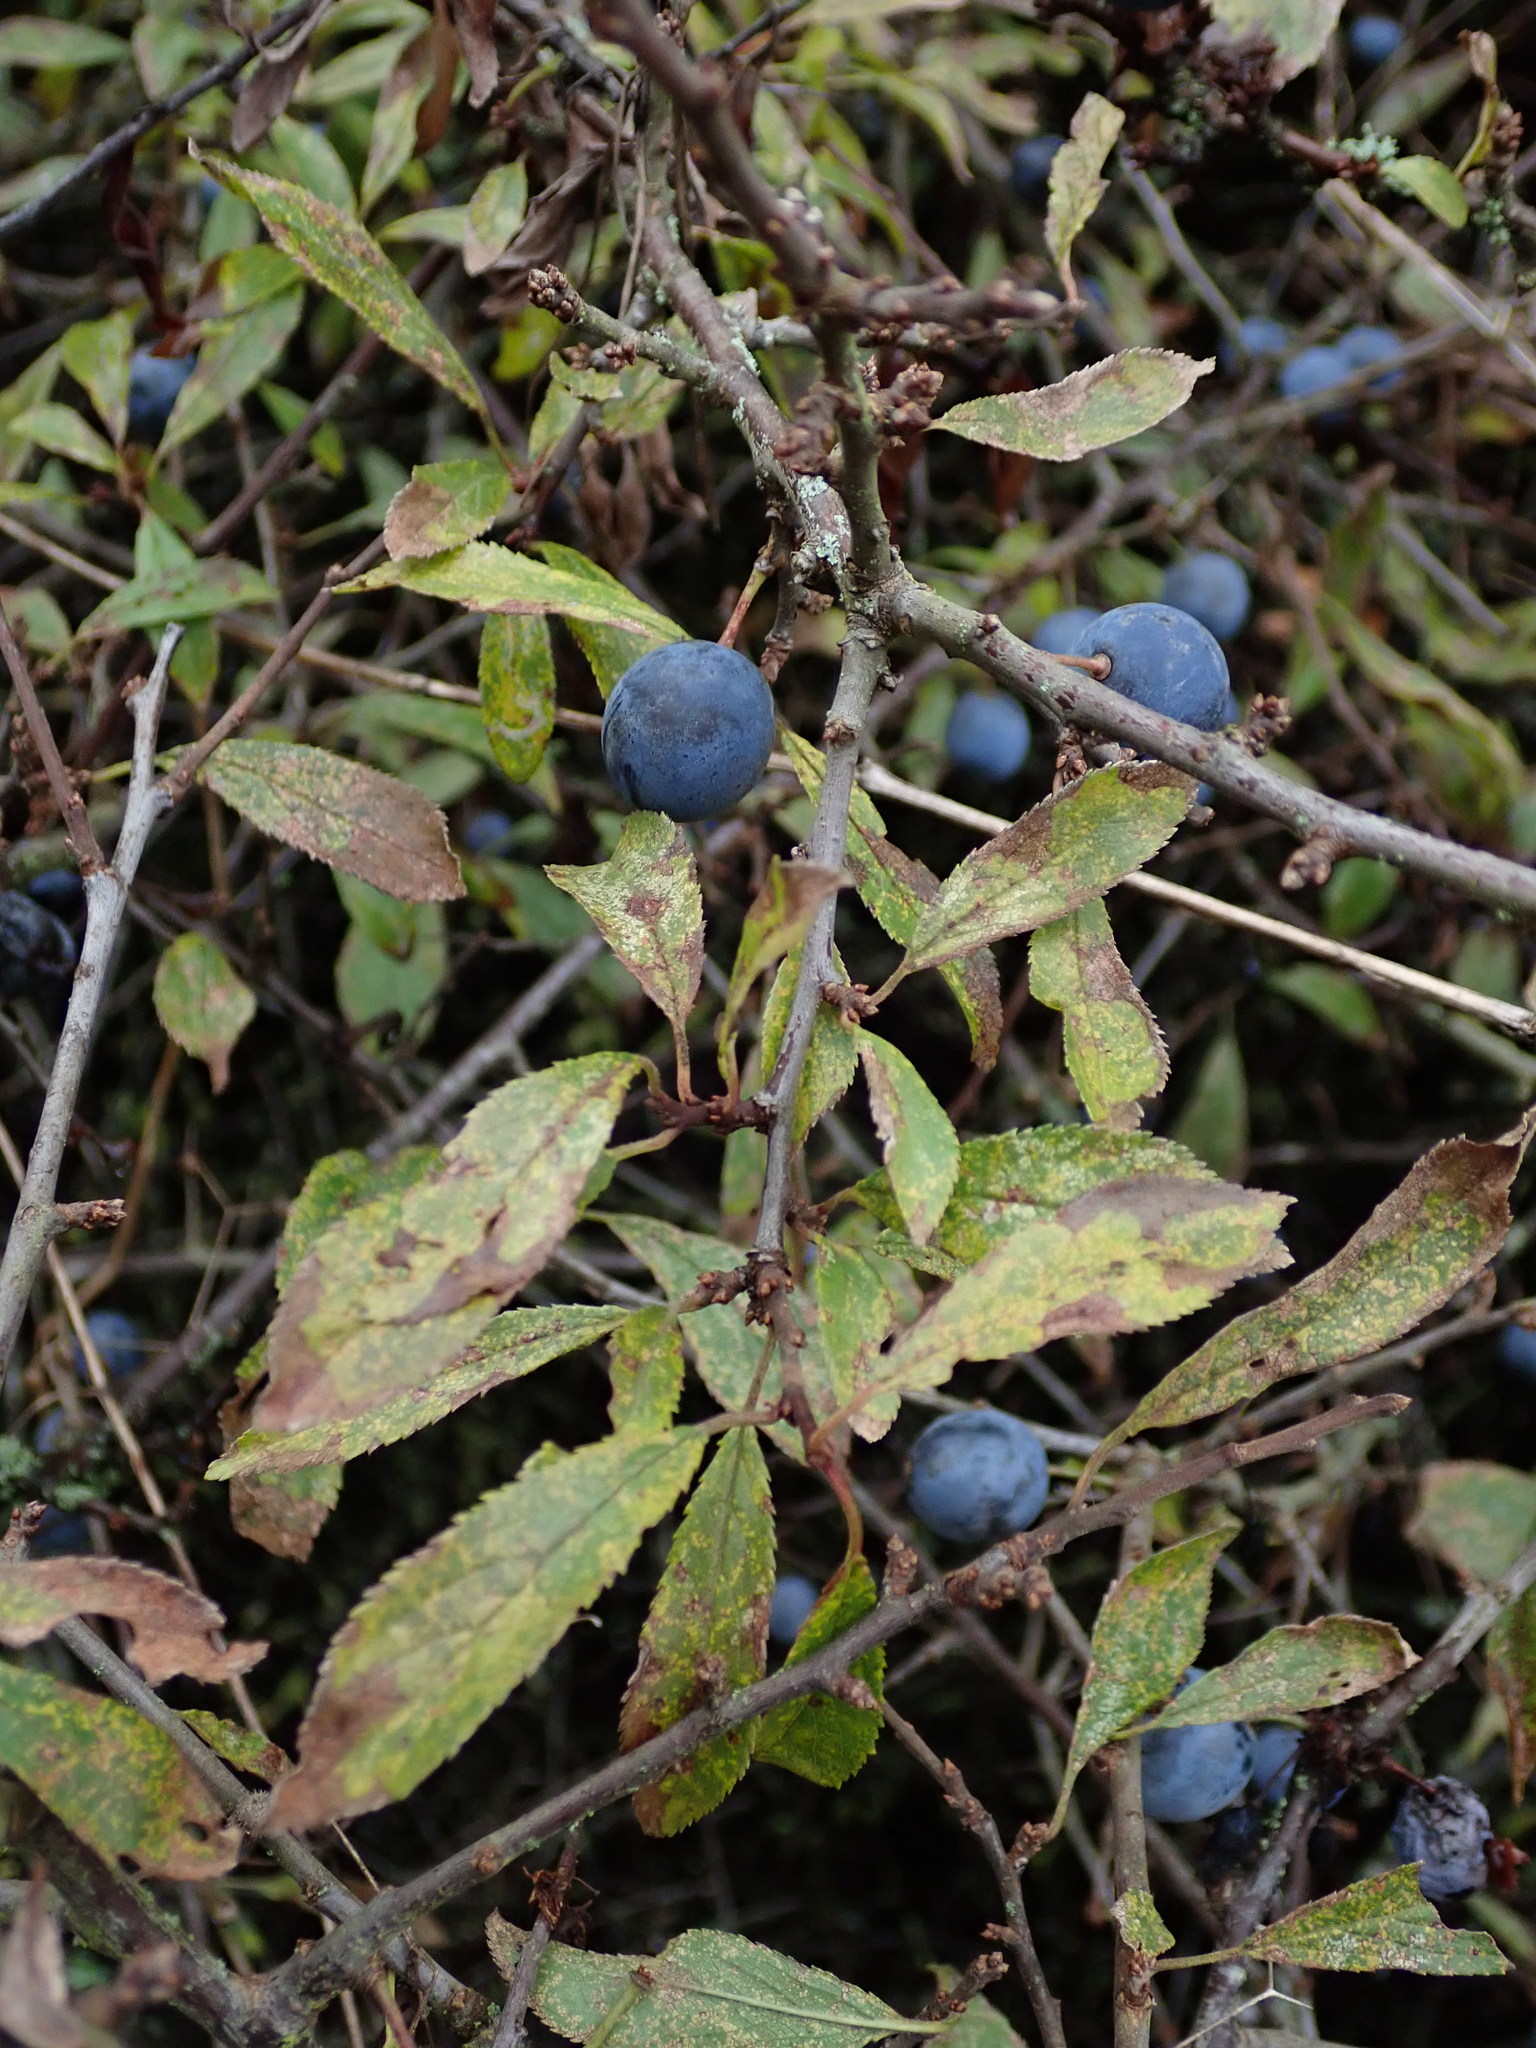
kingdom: Plantae
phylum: Tracheophyta
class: Magnoliopsida
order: Rosales
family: Rosaceae
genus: Prunus
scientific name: Prunus spinosa
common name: Blackthorn
